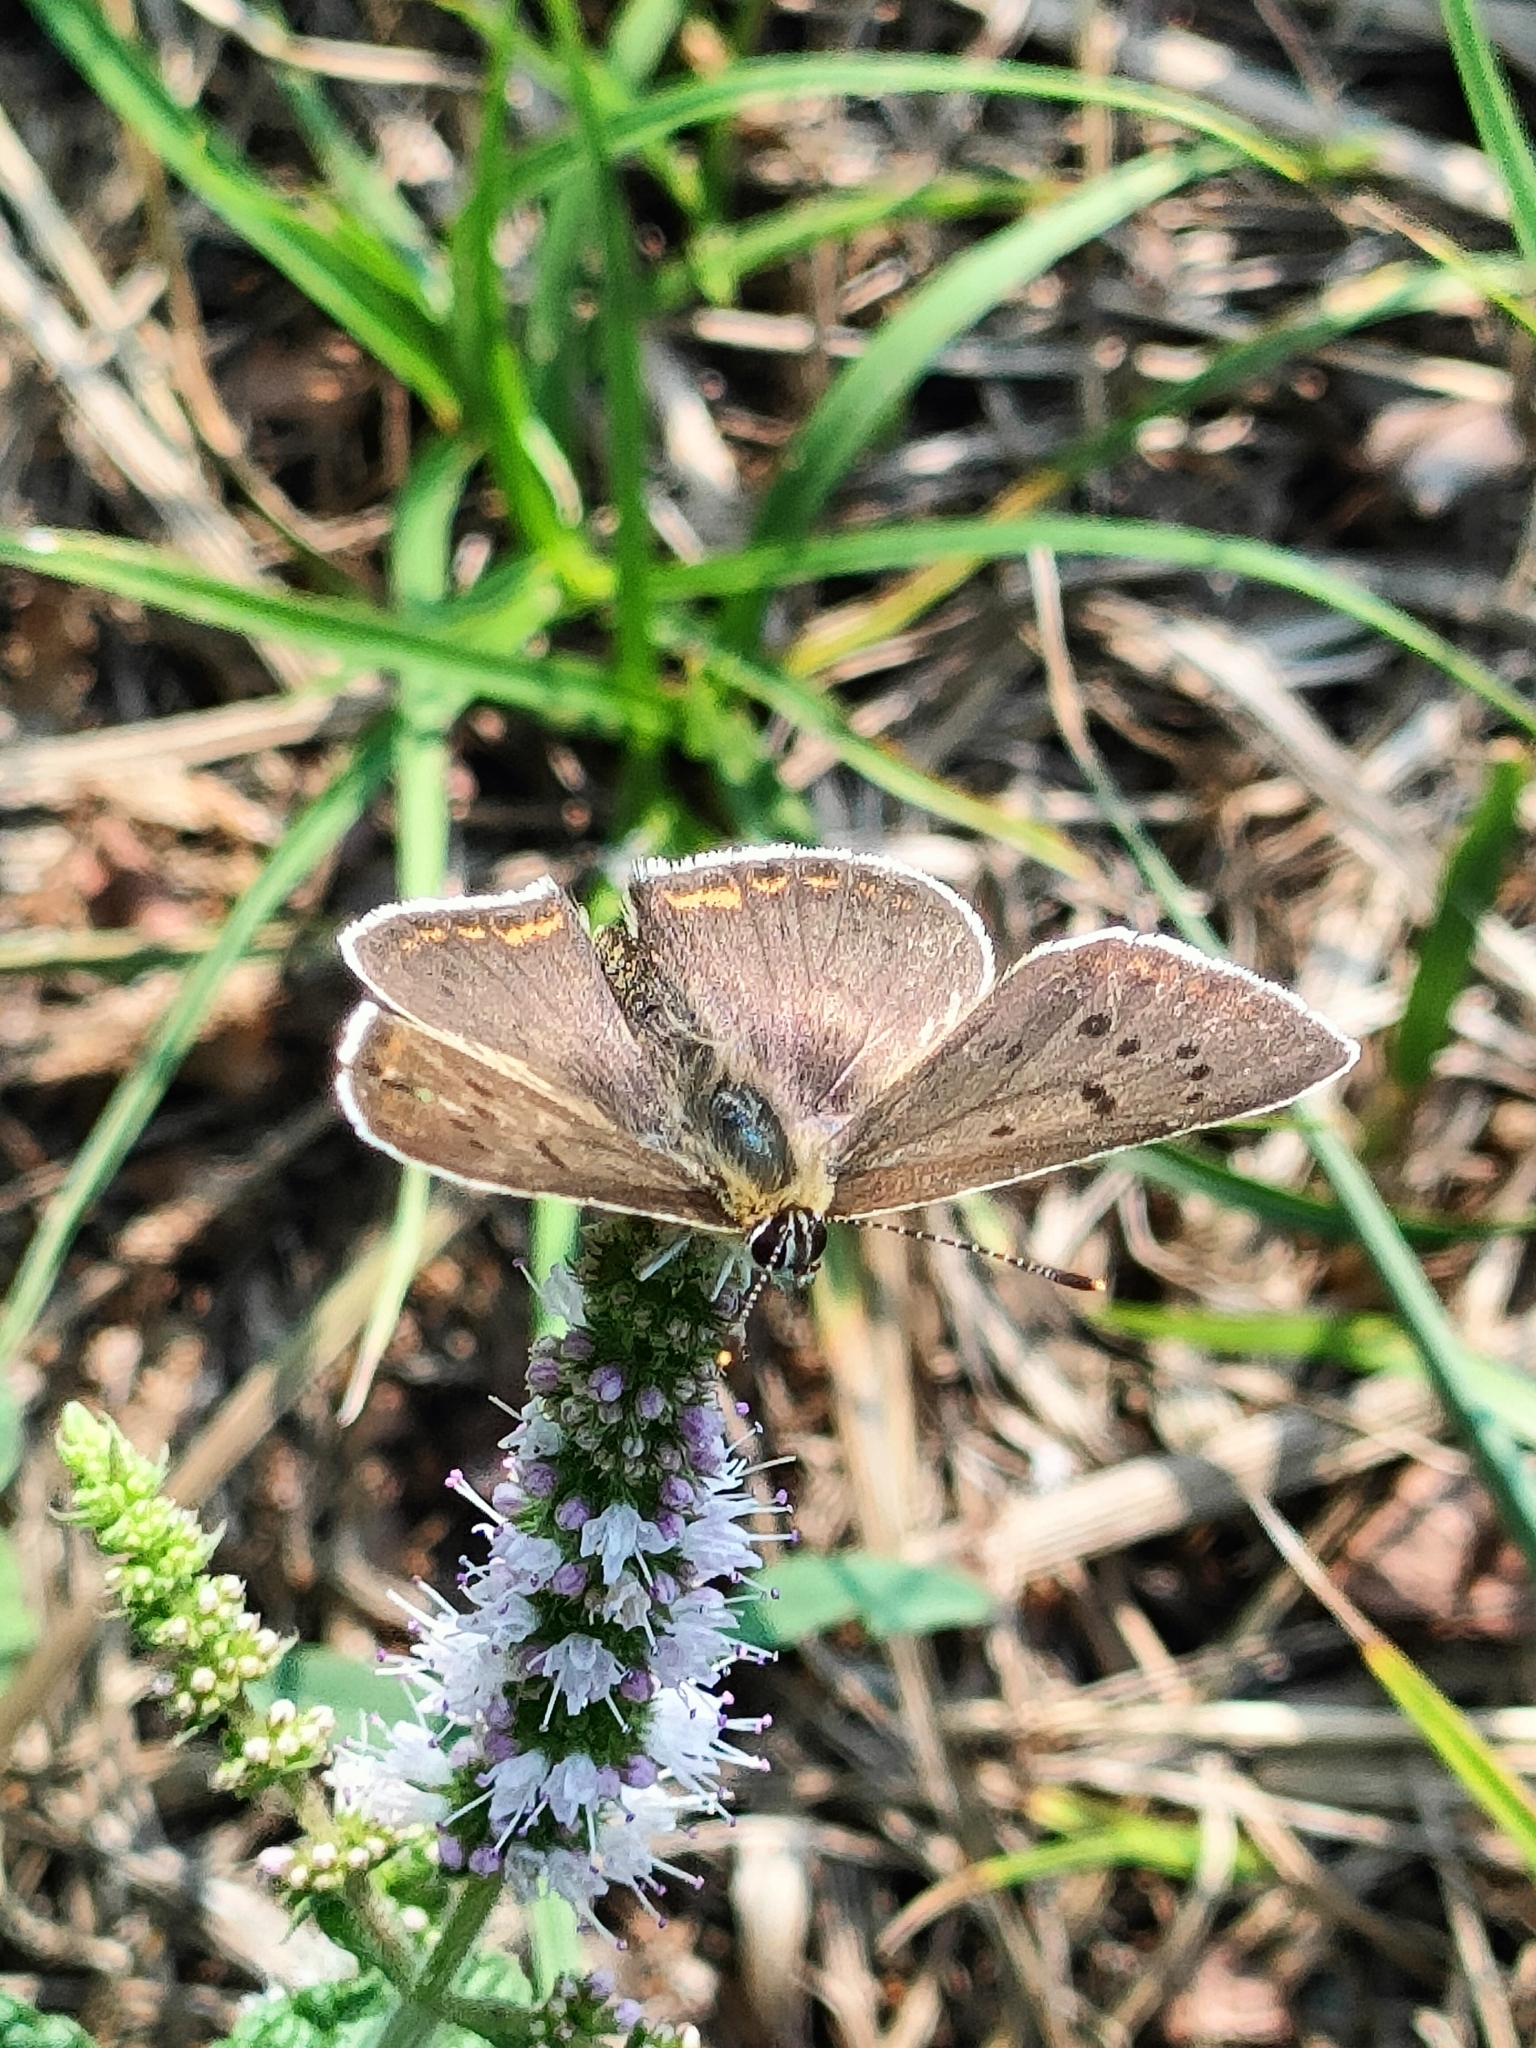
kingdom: Animalia
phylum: Arthropoda
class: Insecta
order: Lepidoptera
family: Lycaenidae
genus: Loweia
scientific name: Loweia tityrus
